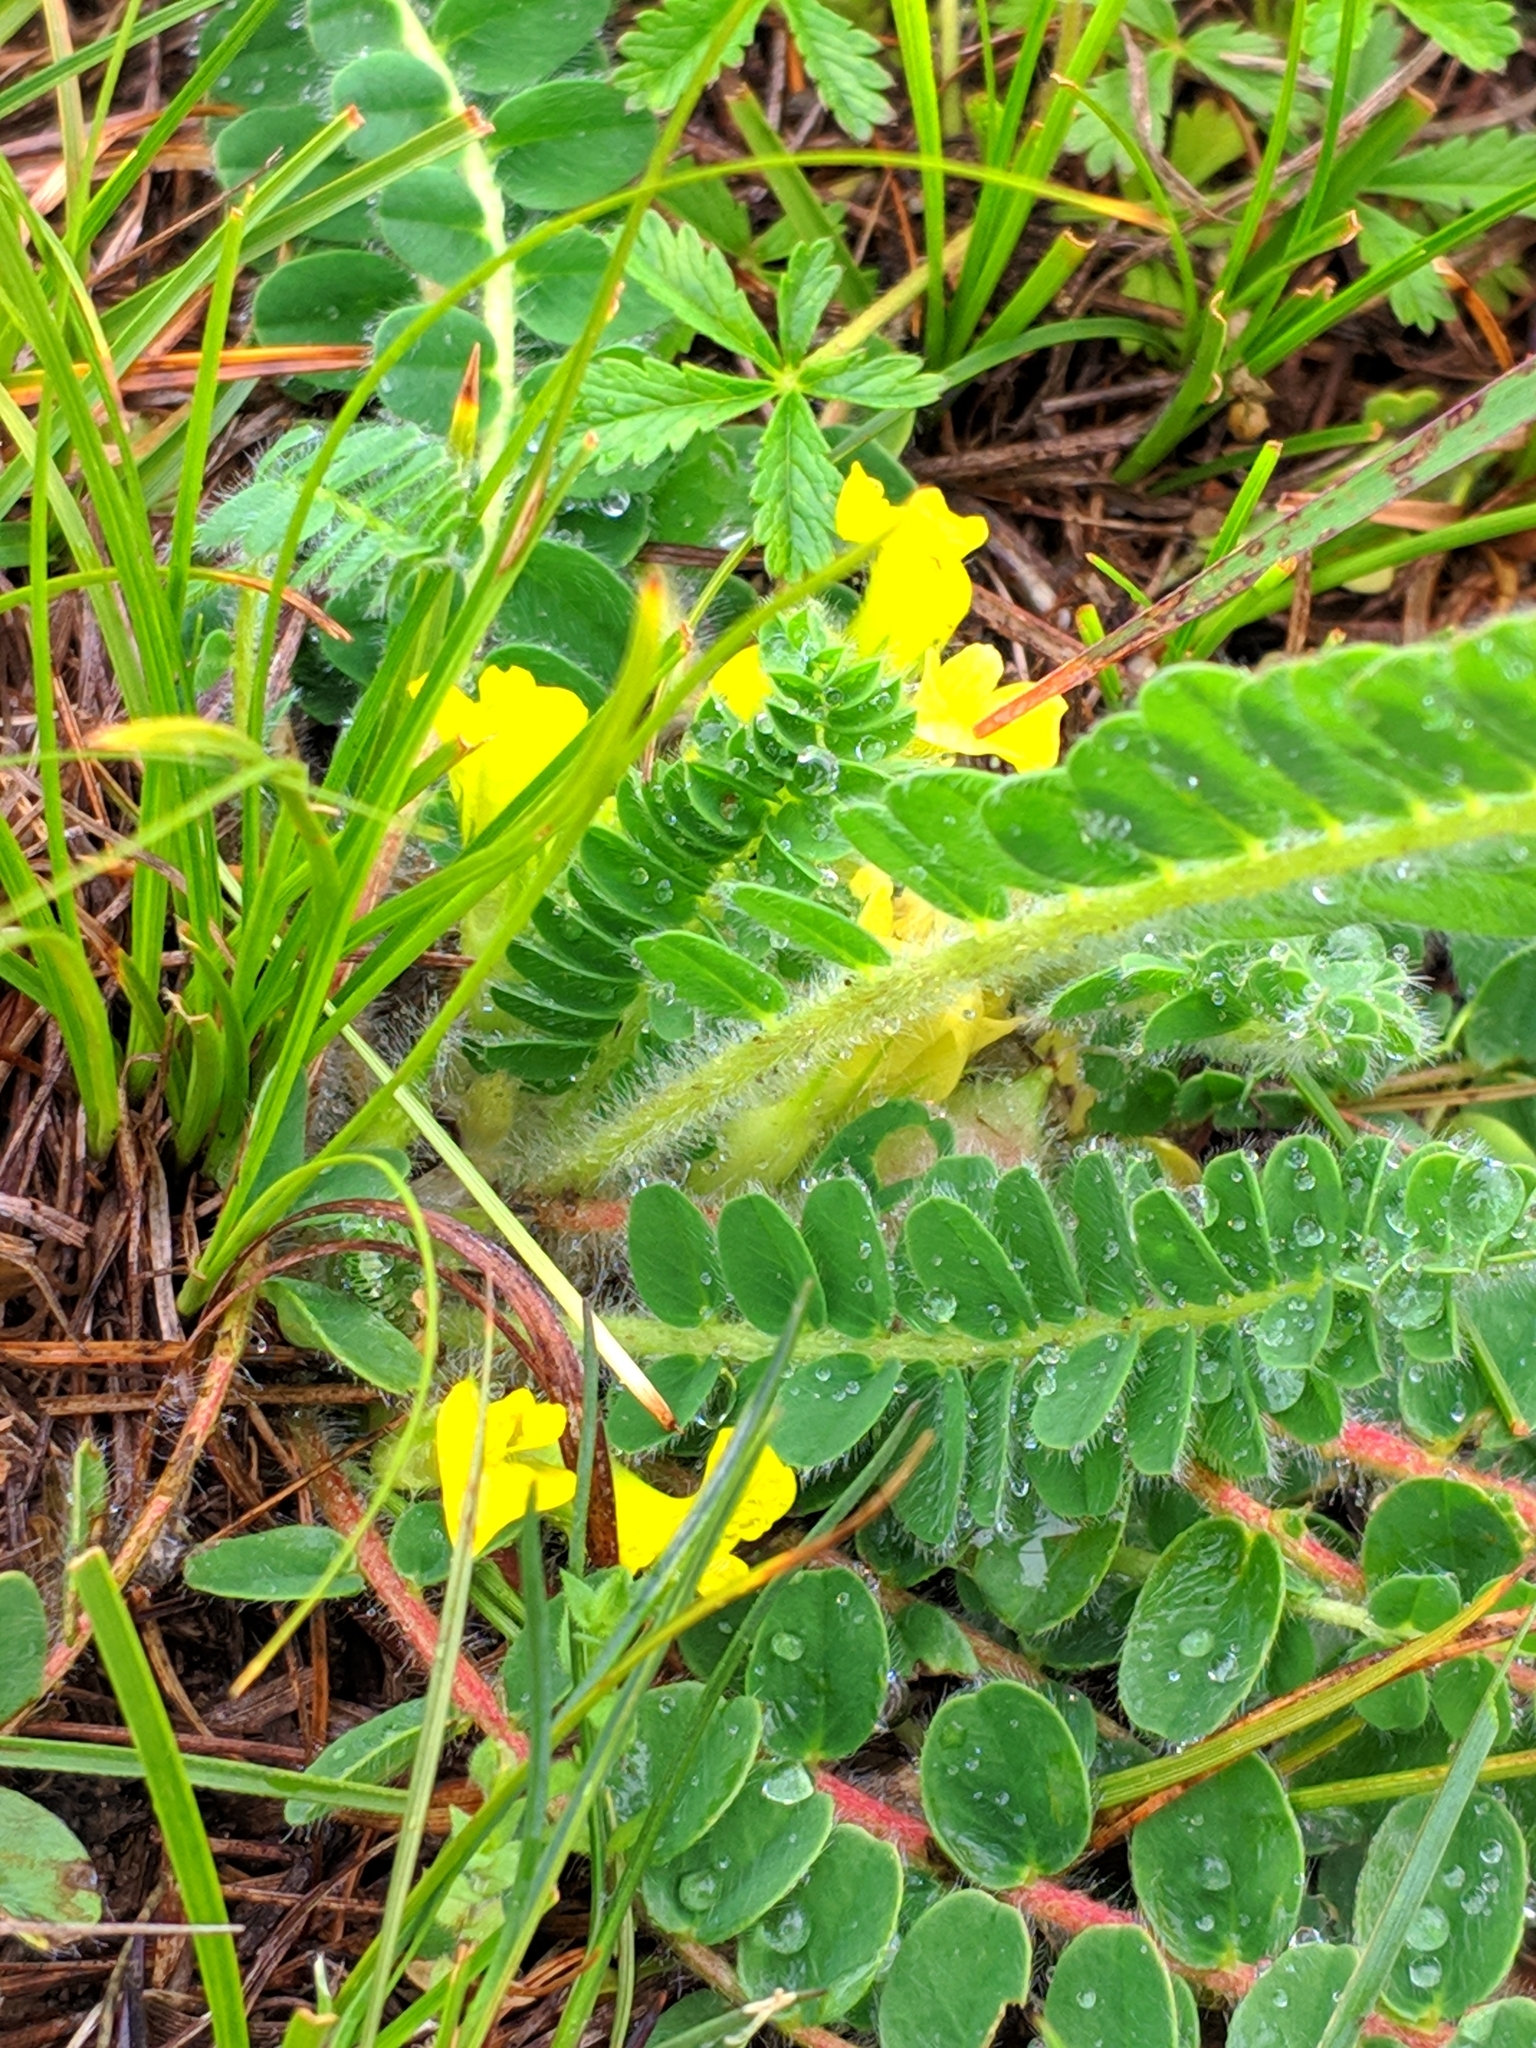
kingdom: Plantae
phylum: Tracheophyta
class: Magnoliopsida
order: Fabales
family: Fabaceae
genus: Astragalus
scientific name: Astragalus exscapus
